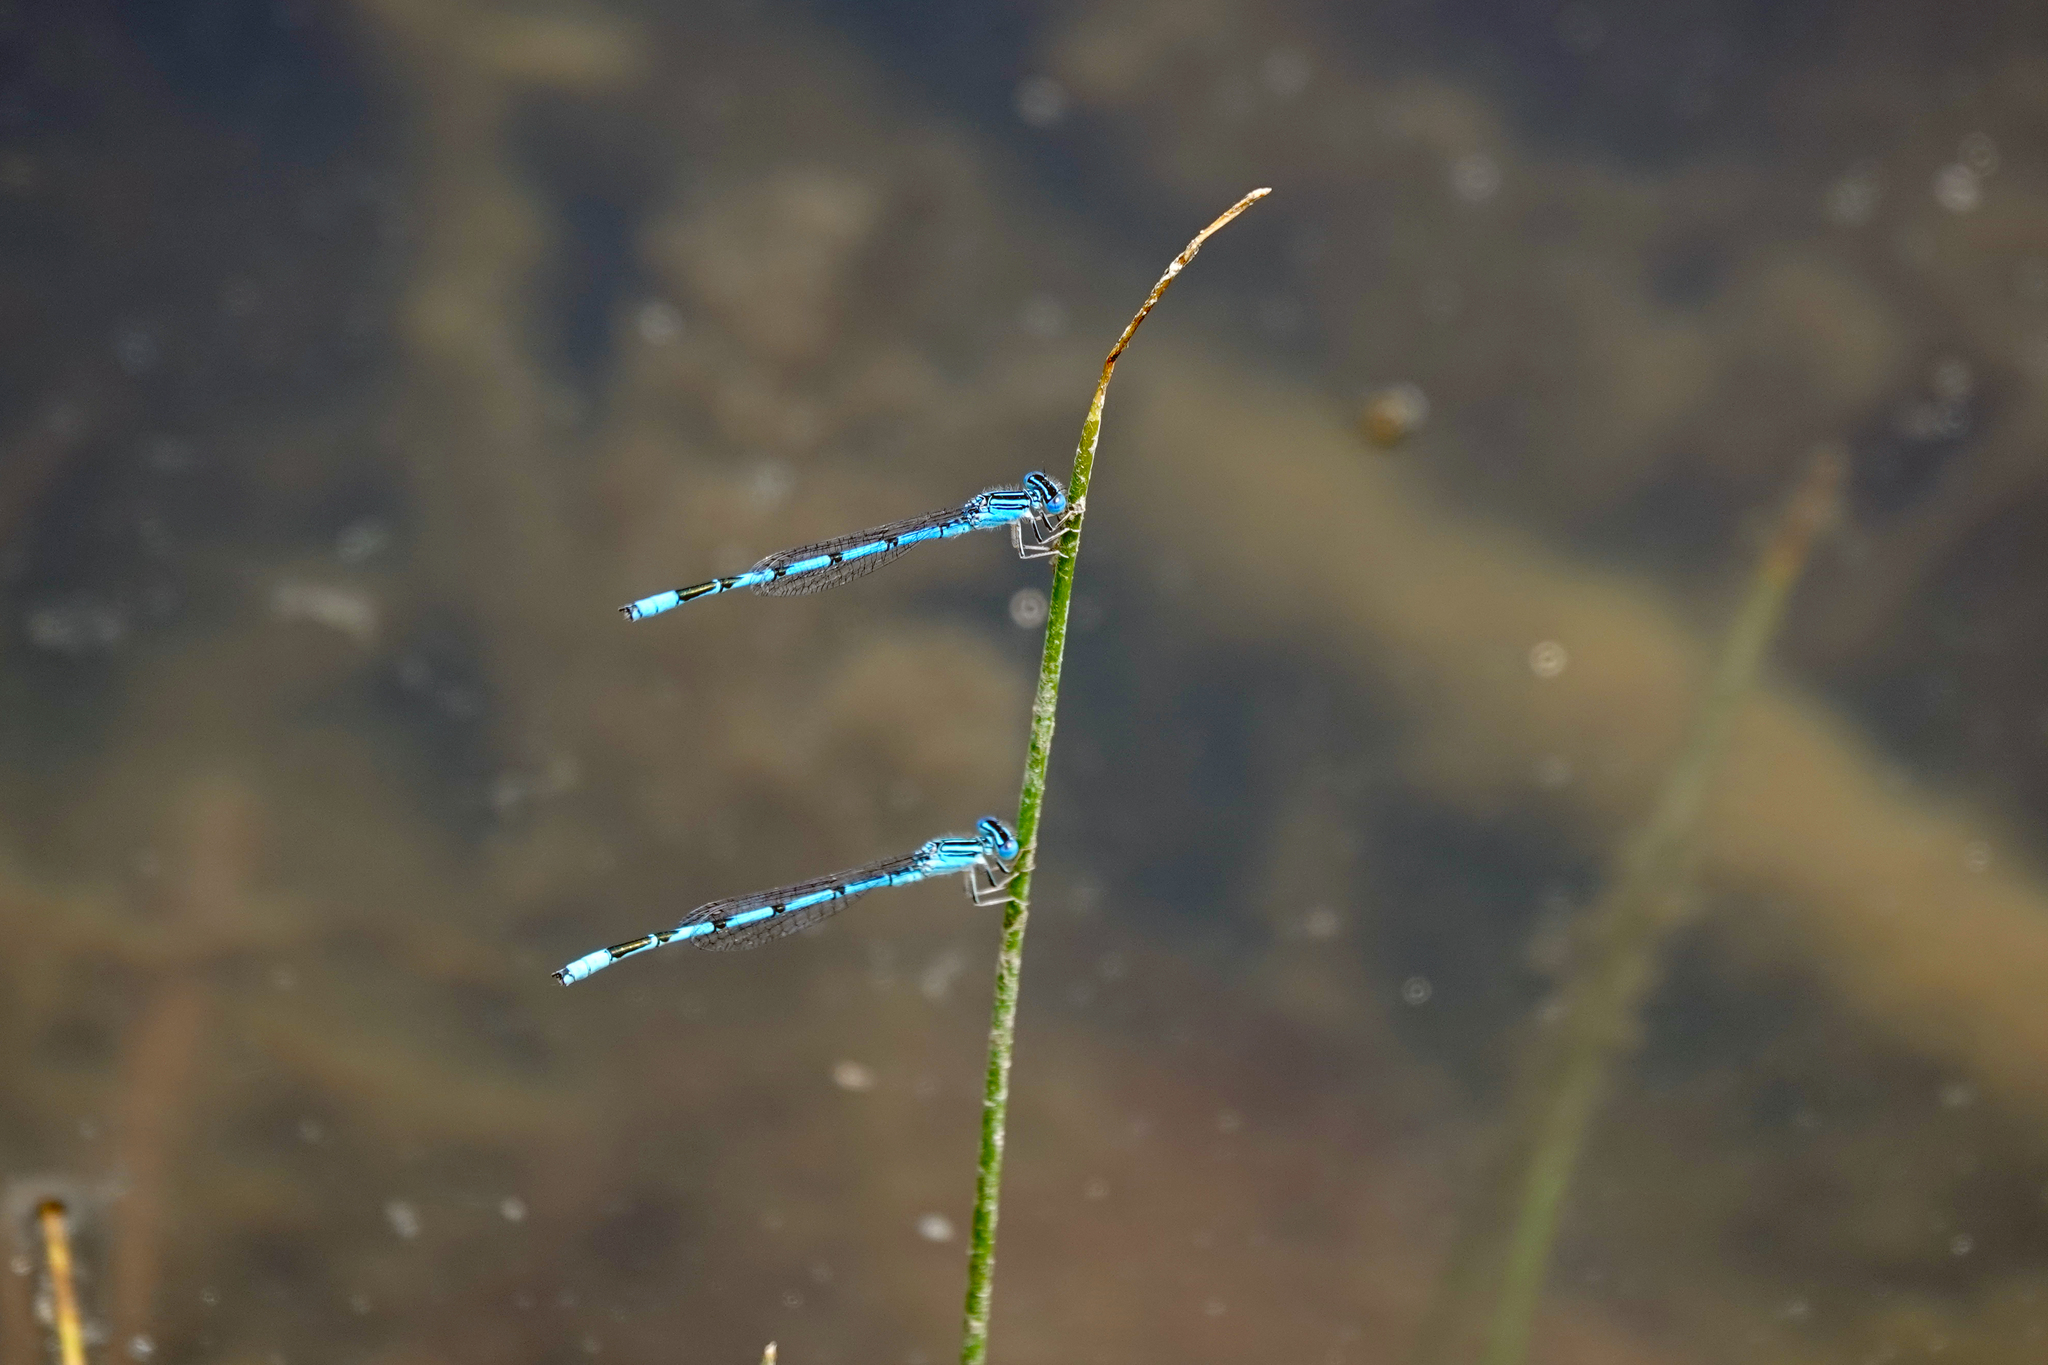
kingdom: Animalia
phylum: Arthropoda
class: Insecta
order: Odonata
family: Coenagrionidae
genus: Enallagma
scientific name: Enallagma basidens
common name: Double-striped bluet
